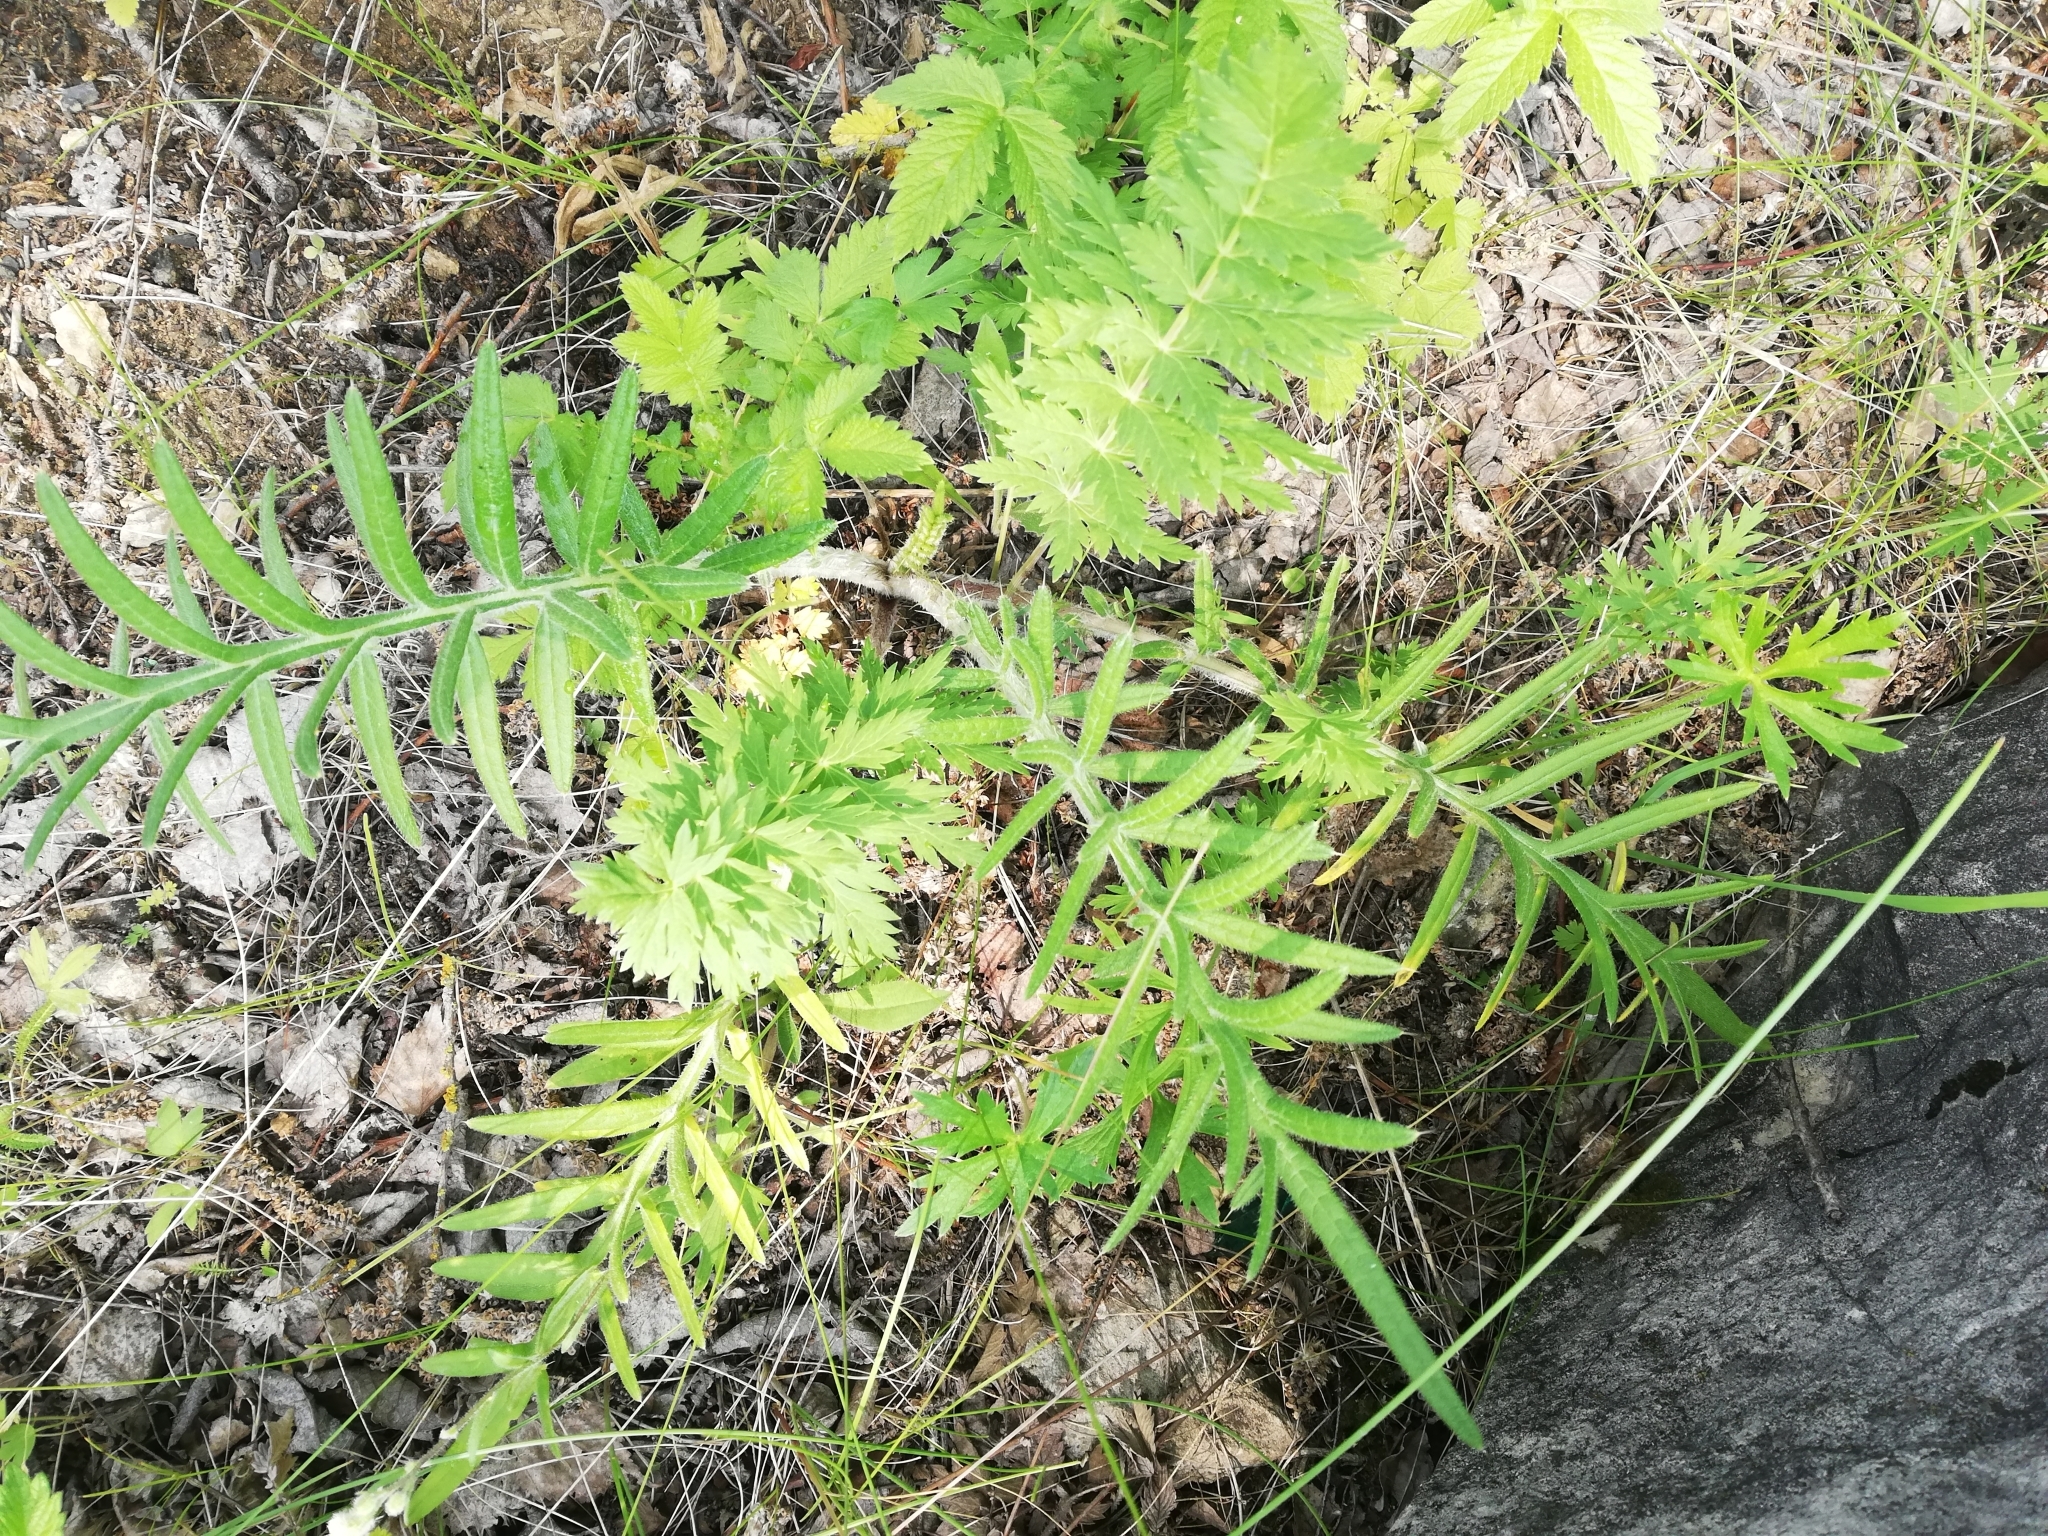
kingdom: Plantae
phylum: Tracheophyta
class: Magnoliopsida
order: Asterales
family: Asteraceae
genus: Lophiolepis
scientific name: Lophiolepis decussata
